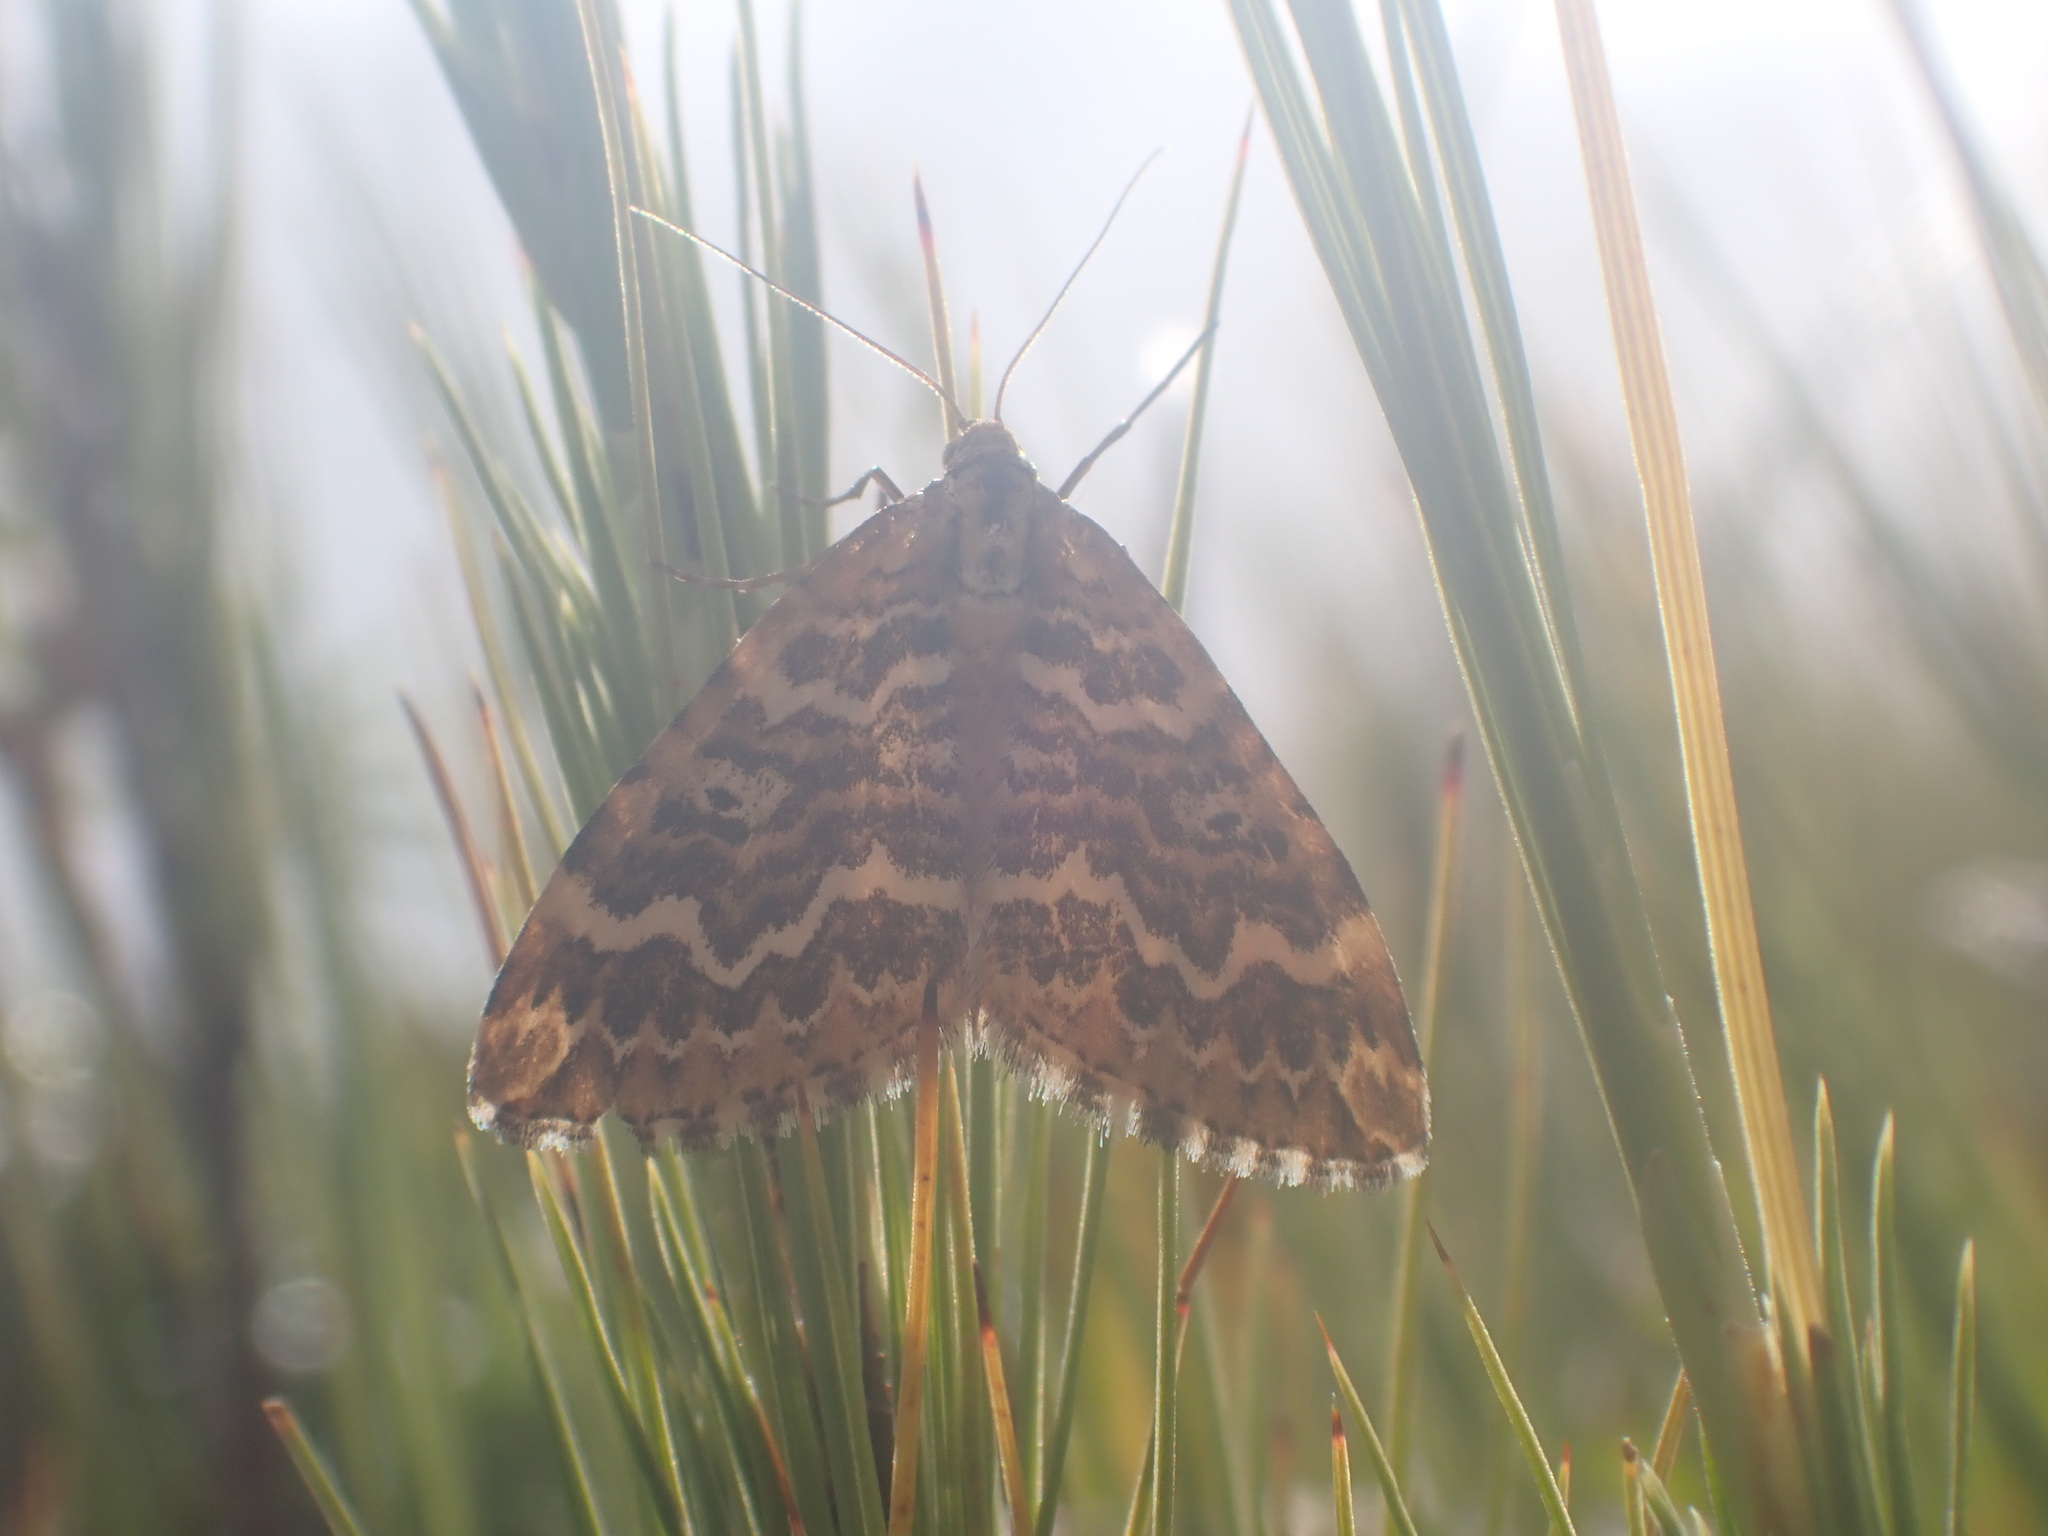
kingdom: Animalia
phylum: Arthropoda
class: Insecta
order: Lepidoptera
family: Geometridae
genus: Asaphodes
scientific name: Asaphodes clarata
